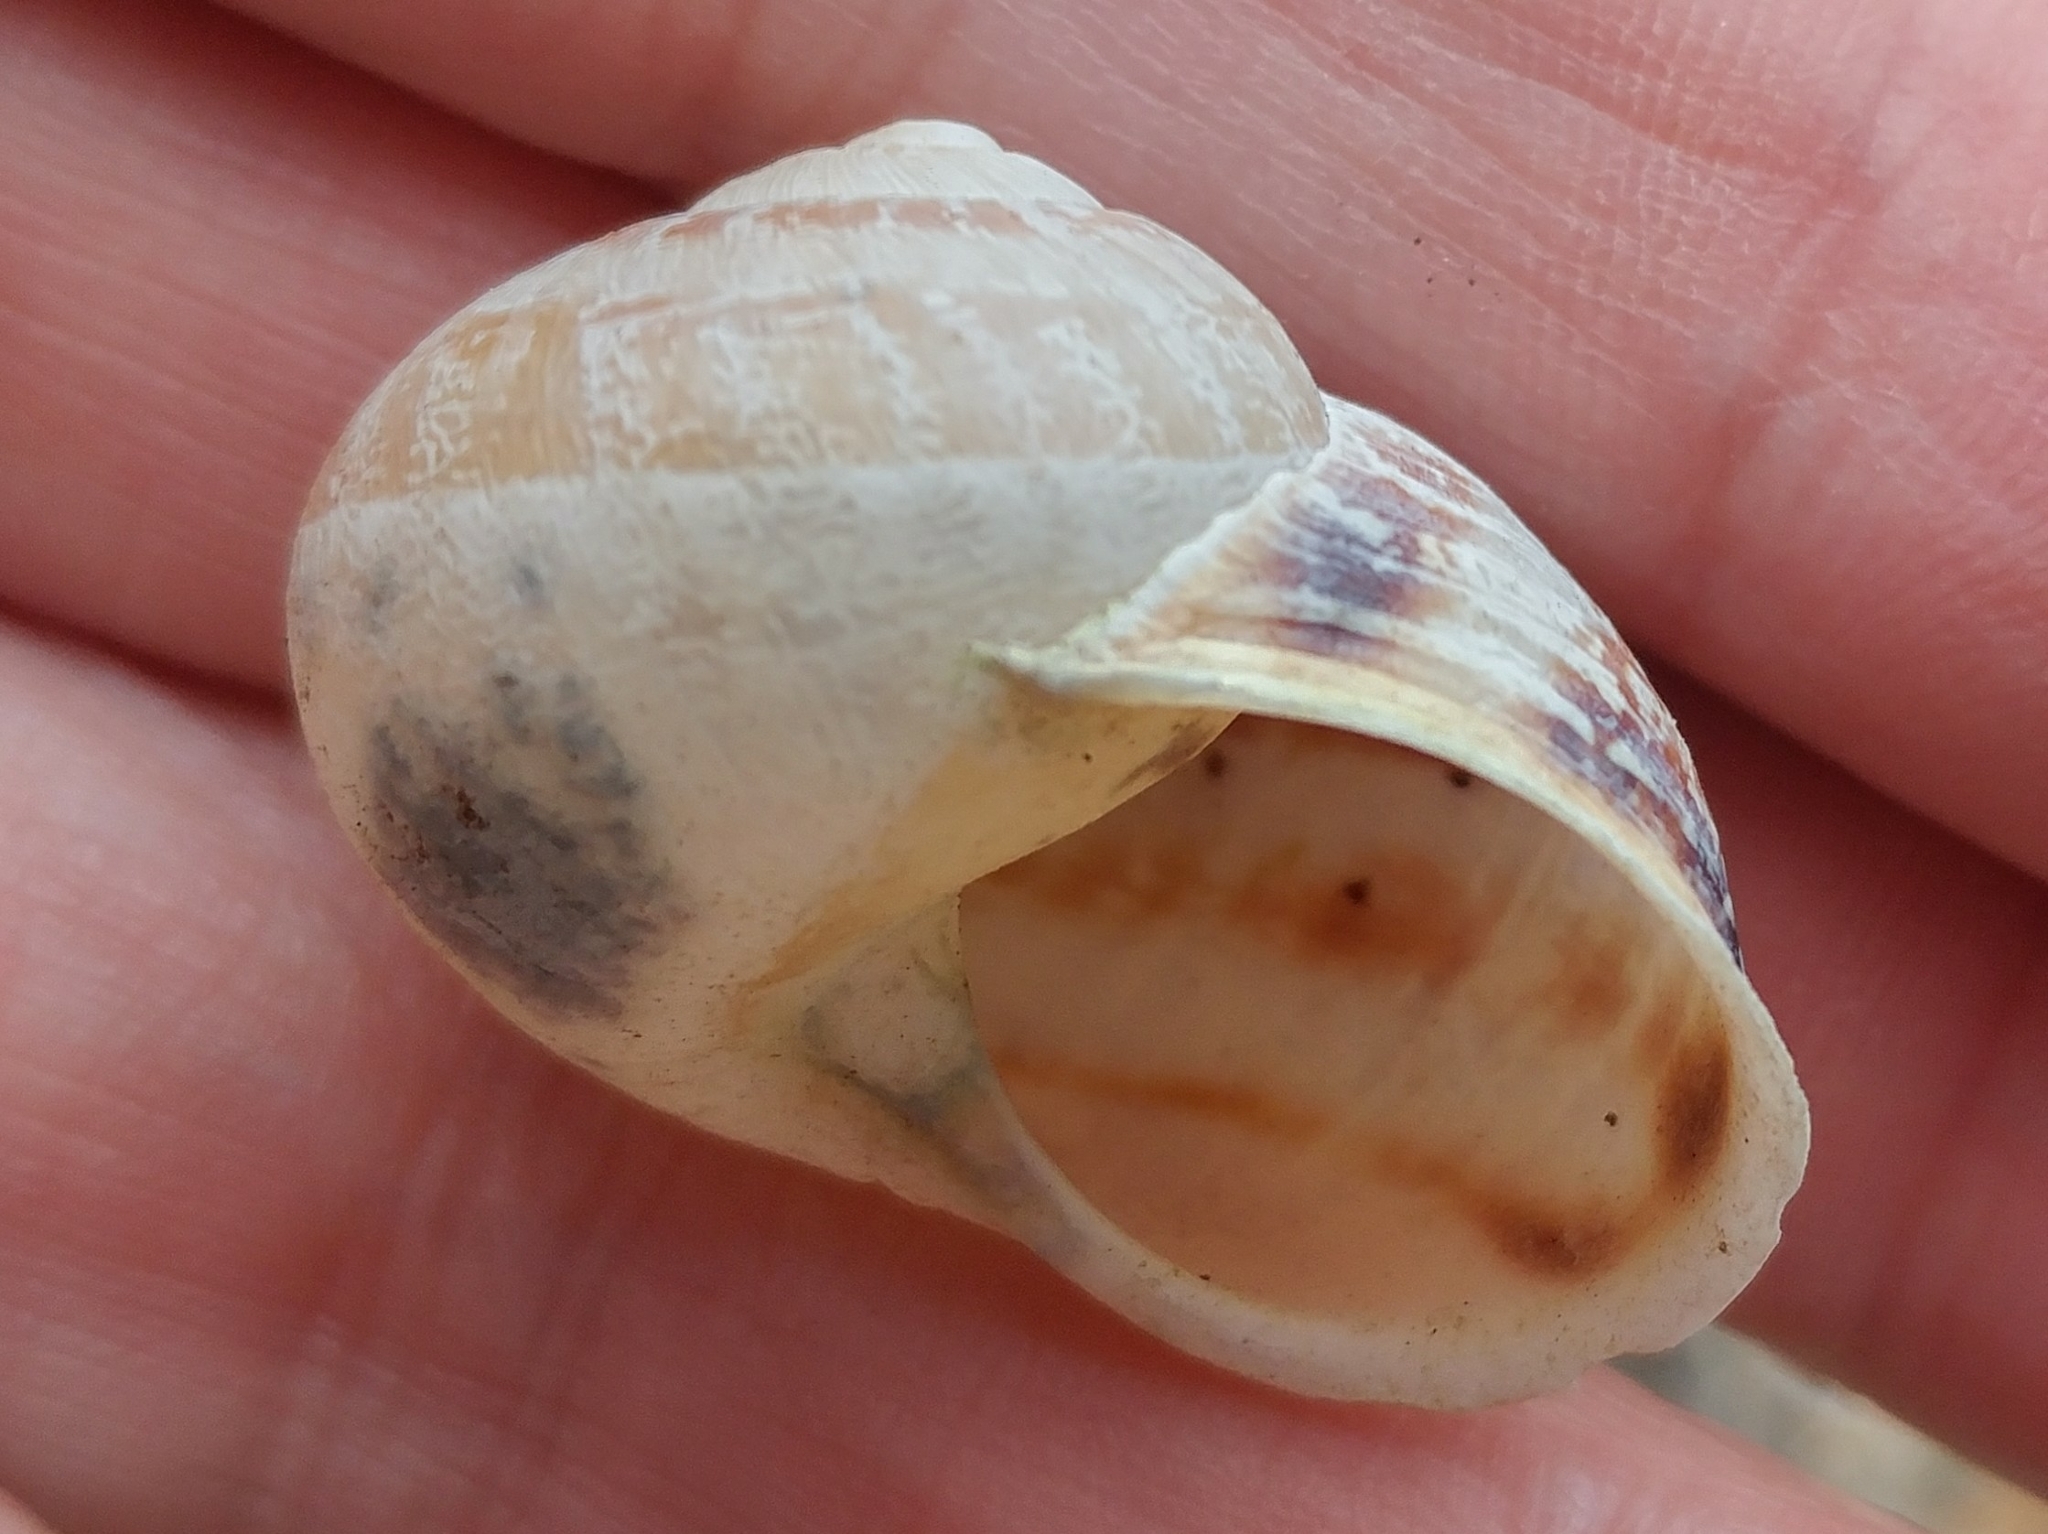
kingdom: Animalia
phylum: Mollusca
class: Gastropoda
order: Stylommatophora
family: Helicidae
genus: Cornu
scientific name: Cornu aspersum
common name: Brown garden snail
